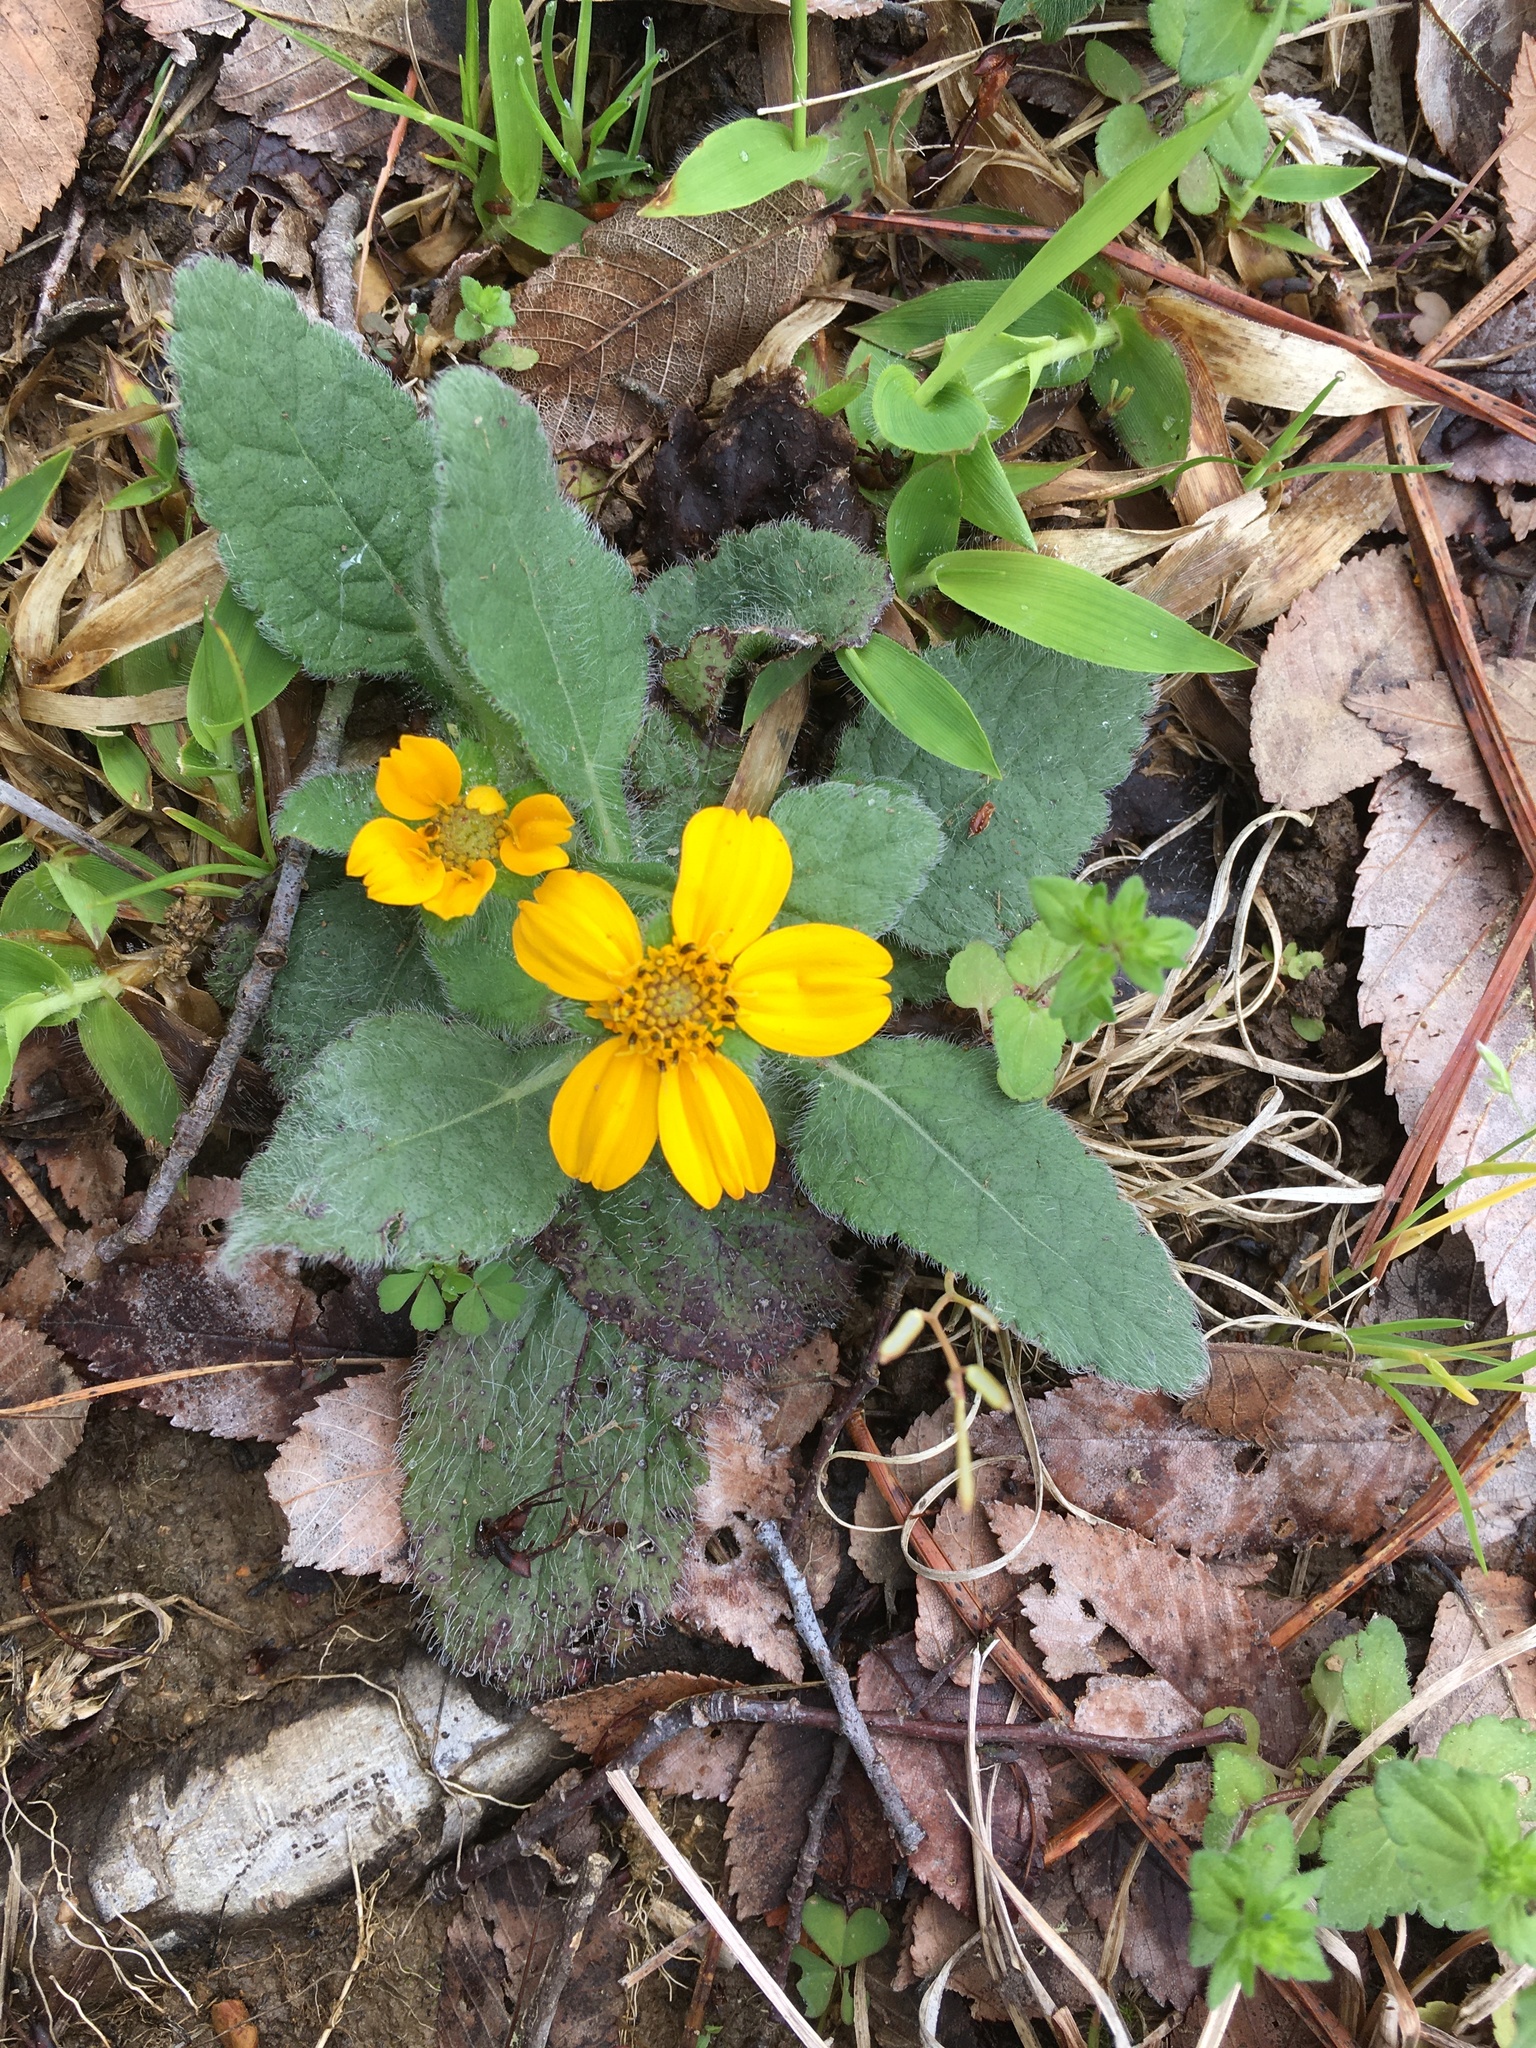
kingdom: Plantae
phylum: Tracheophyta
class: Magnoliopsida
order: Asterales
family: Asteraceae
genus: Chrysogonum
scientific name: Chrysogonum virginianum
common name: Golden-knee
